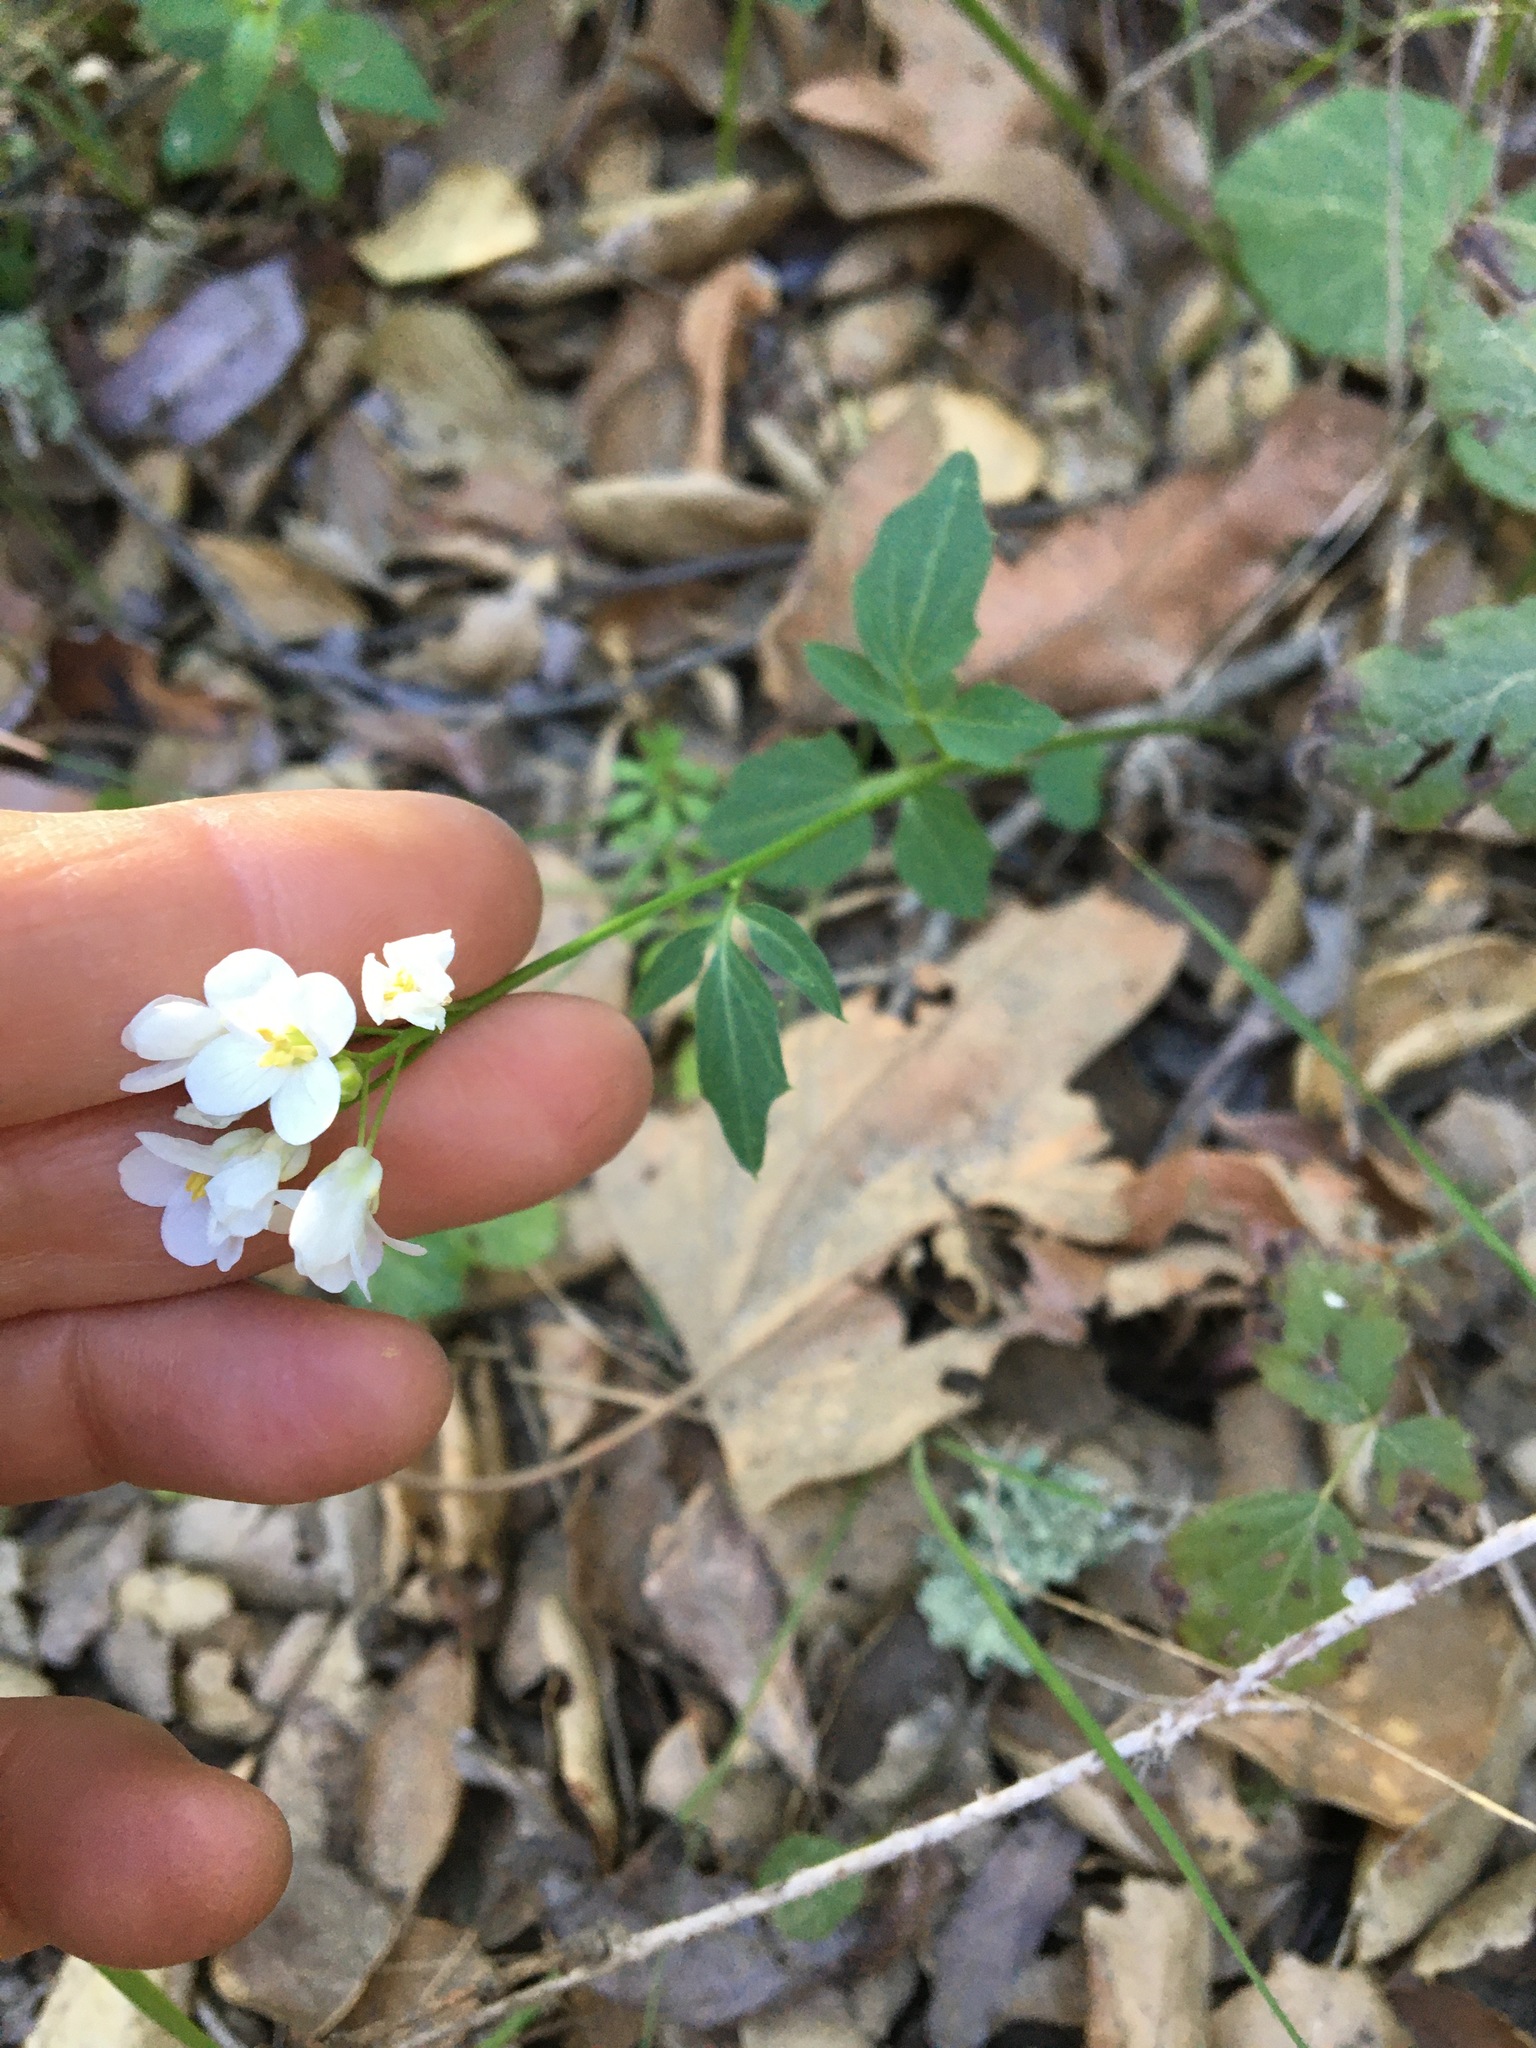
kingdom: Plantae
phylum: Tracheophyta
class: Magnoliopsida
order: Brassicales
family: Brassicaceae
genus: Cardamine
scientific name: Cardamine californica
